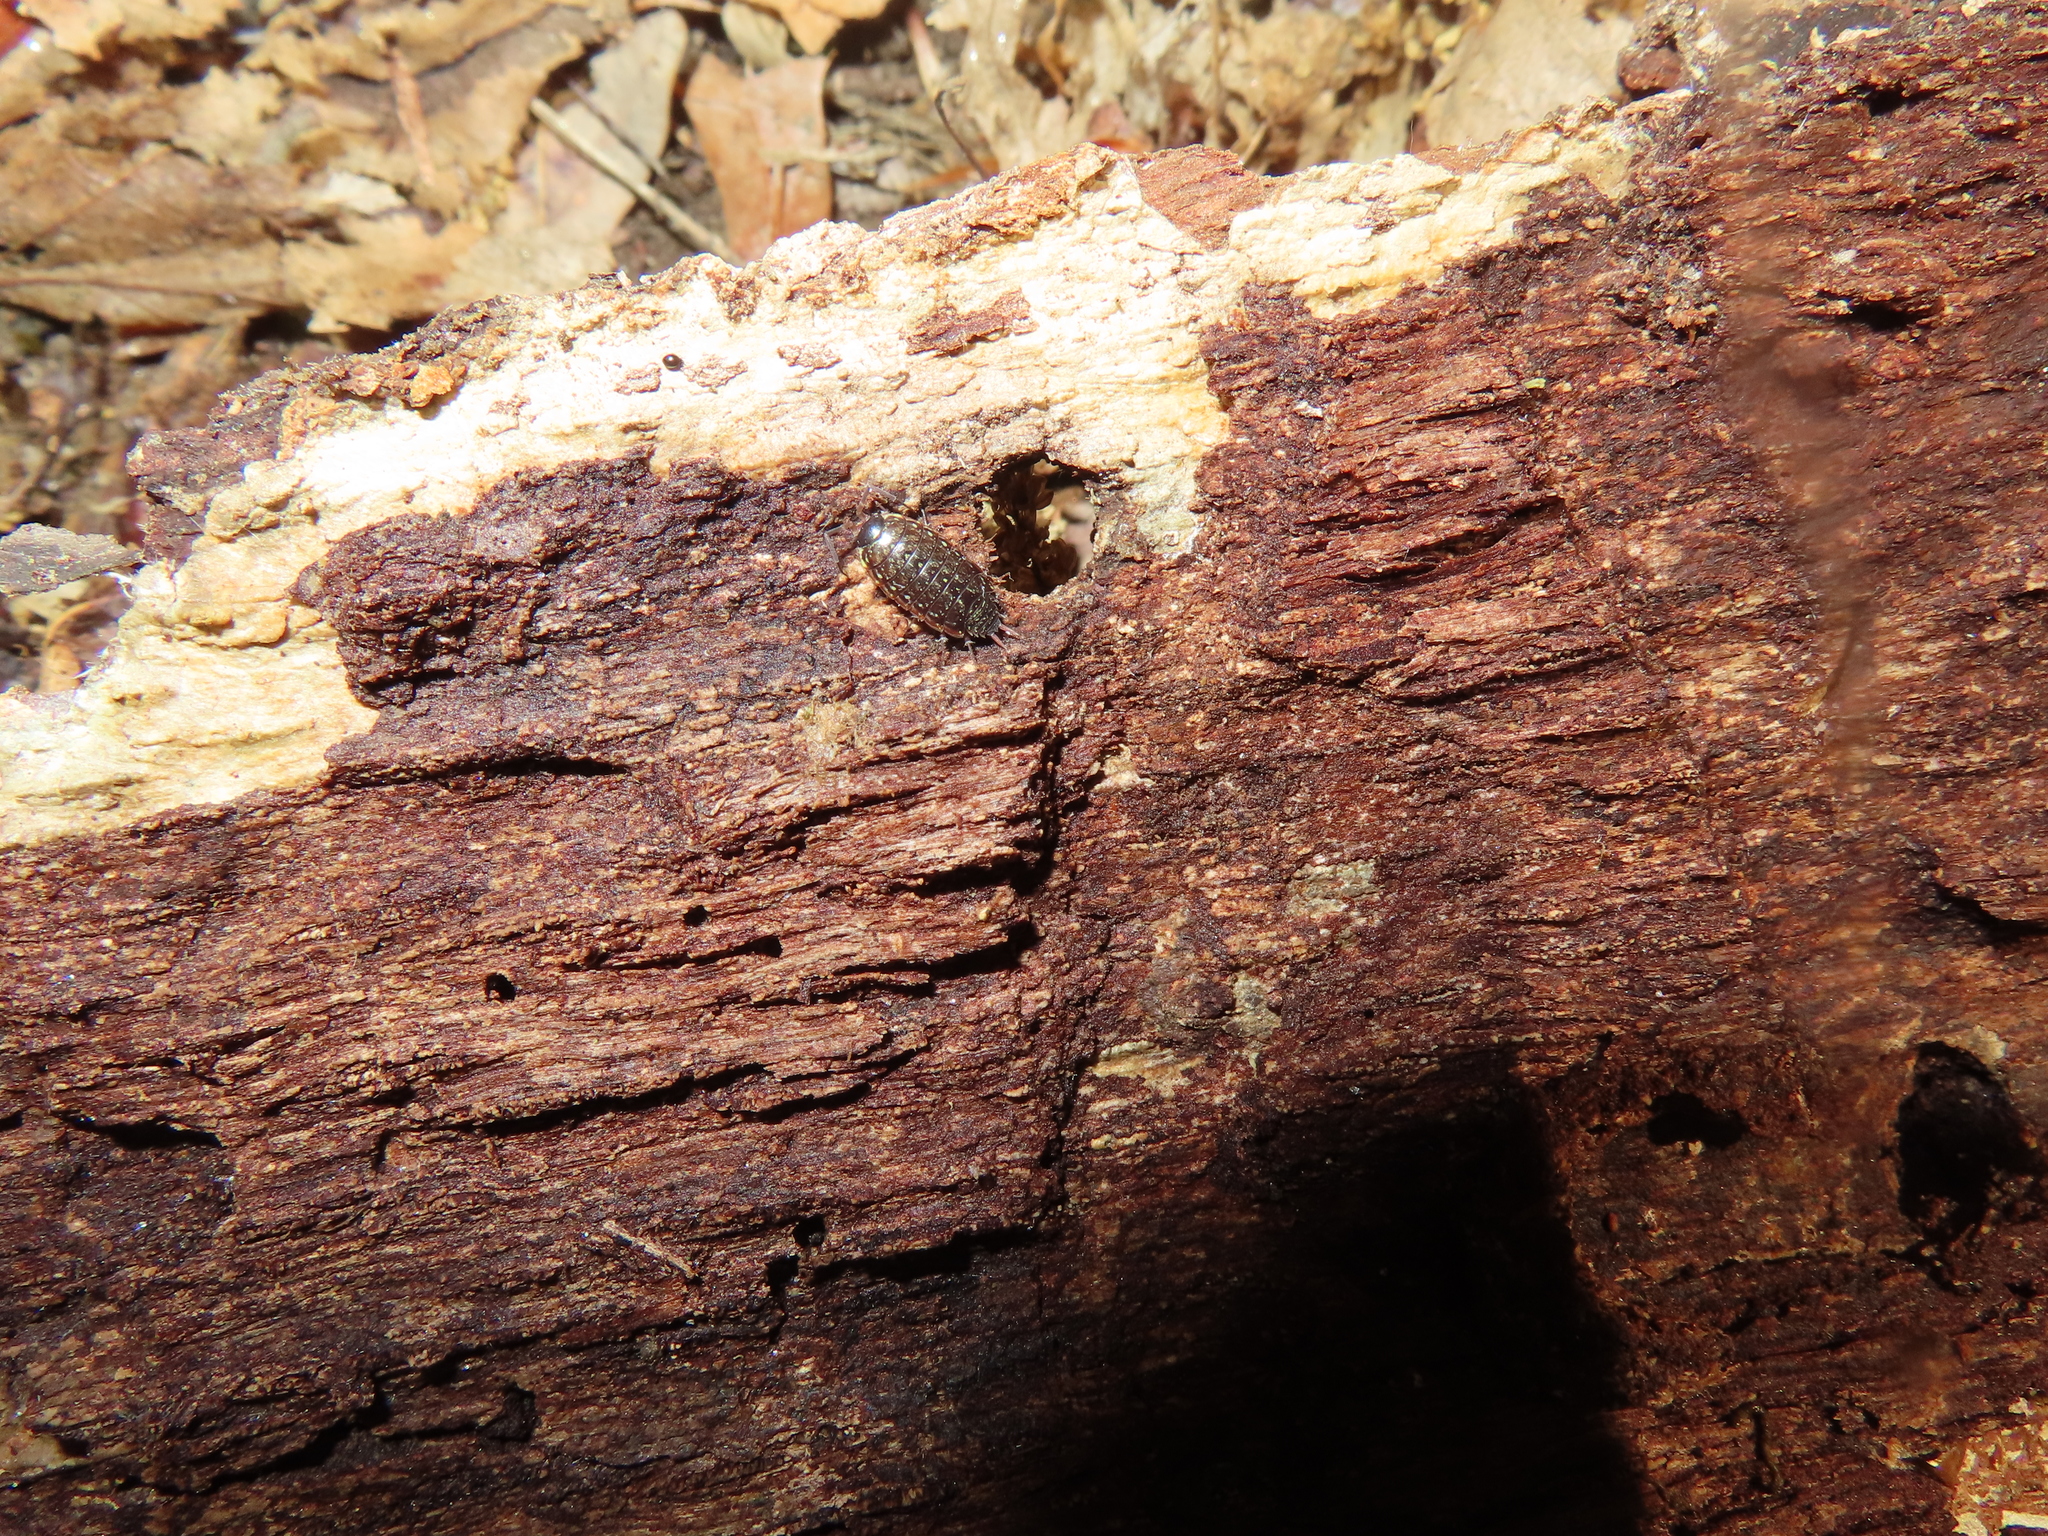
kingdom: Animalia
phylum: Arthropoda
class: Malacostraca
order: Isopoda
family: Philosciidae
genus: Philoscia
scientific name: Philoscia muscorum
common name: Common striped woodlouse
